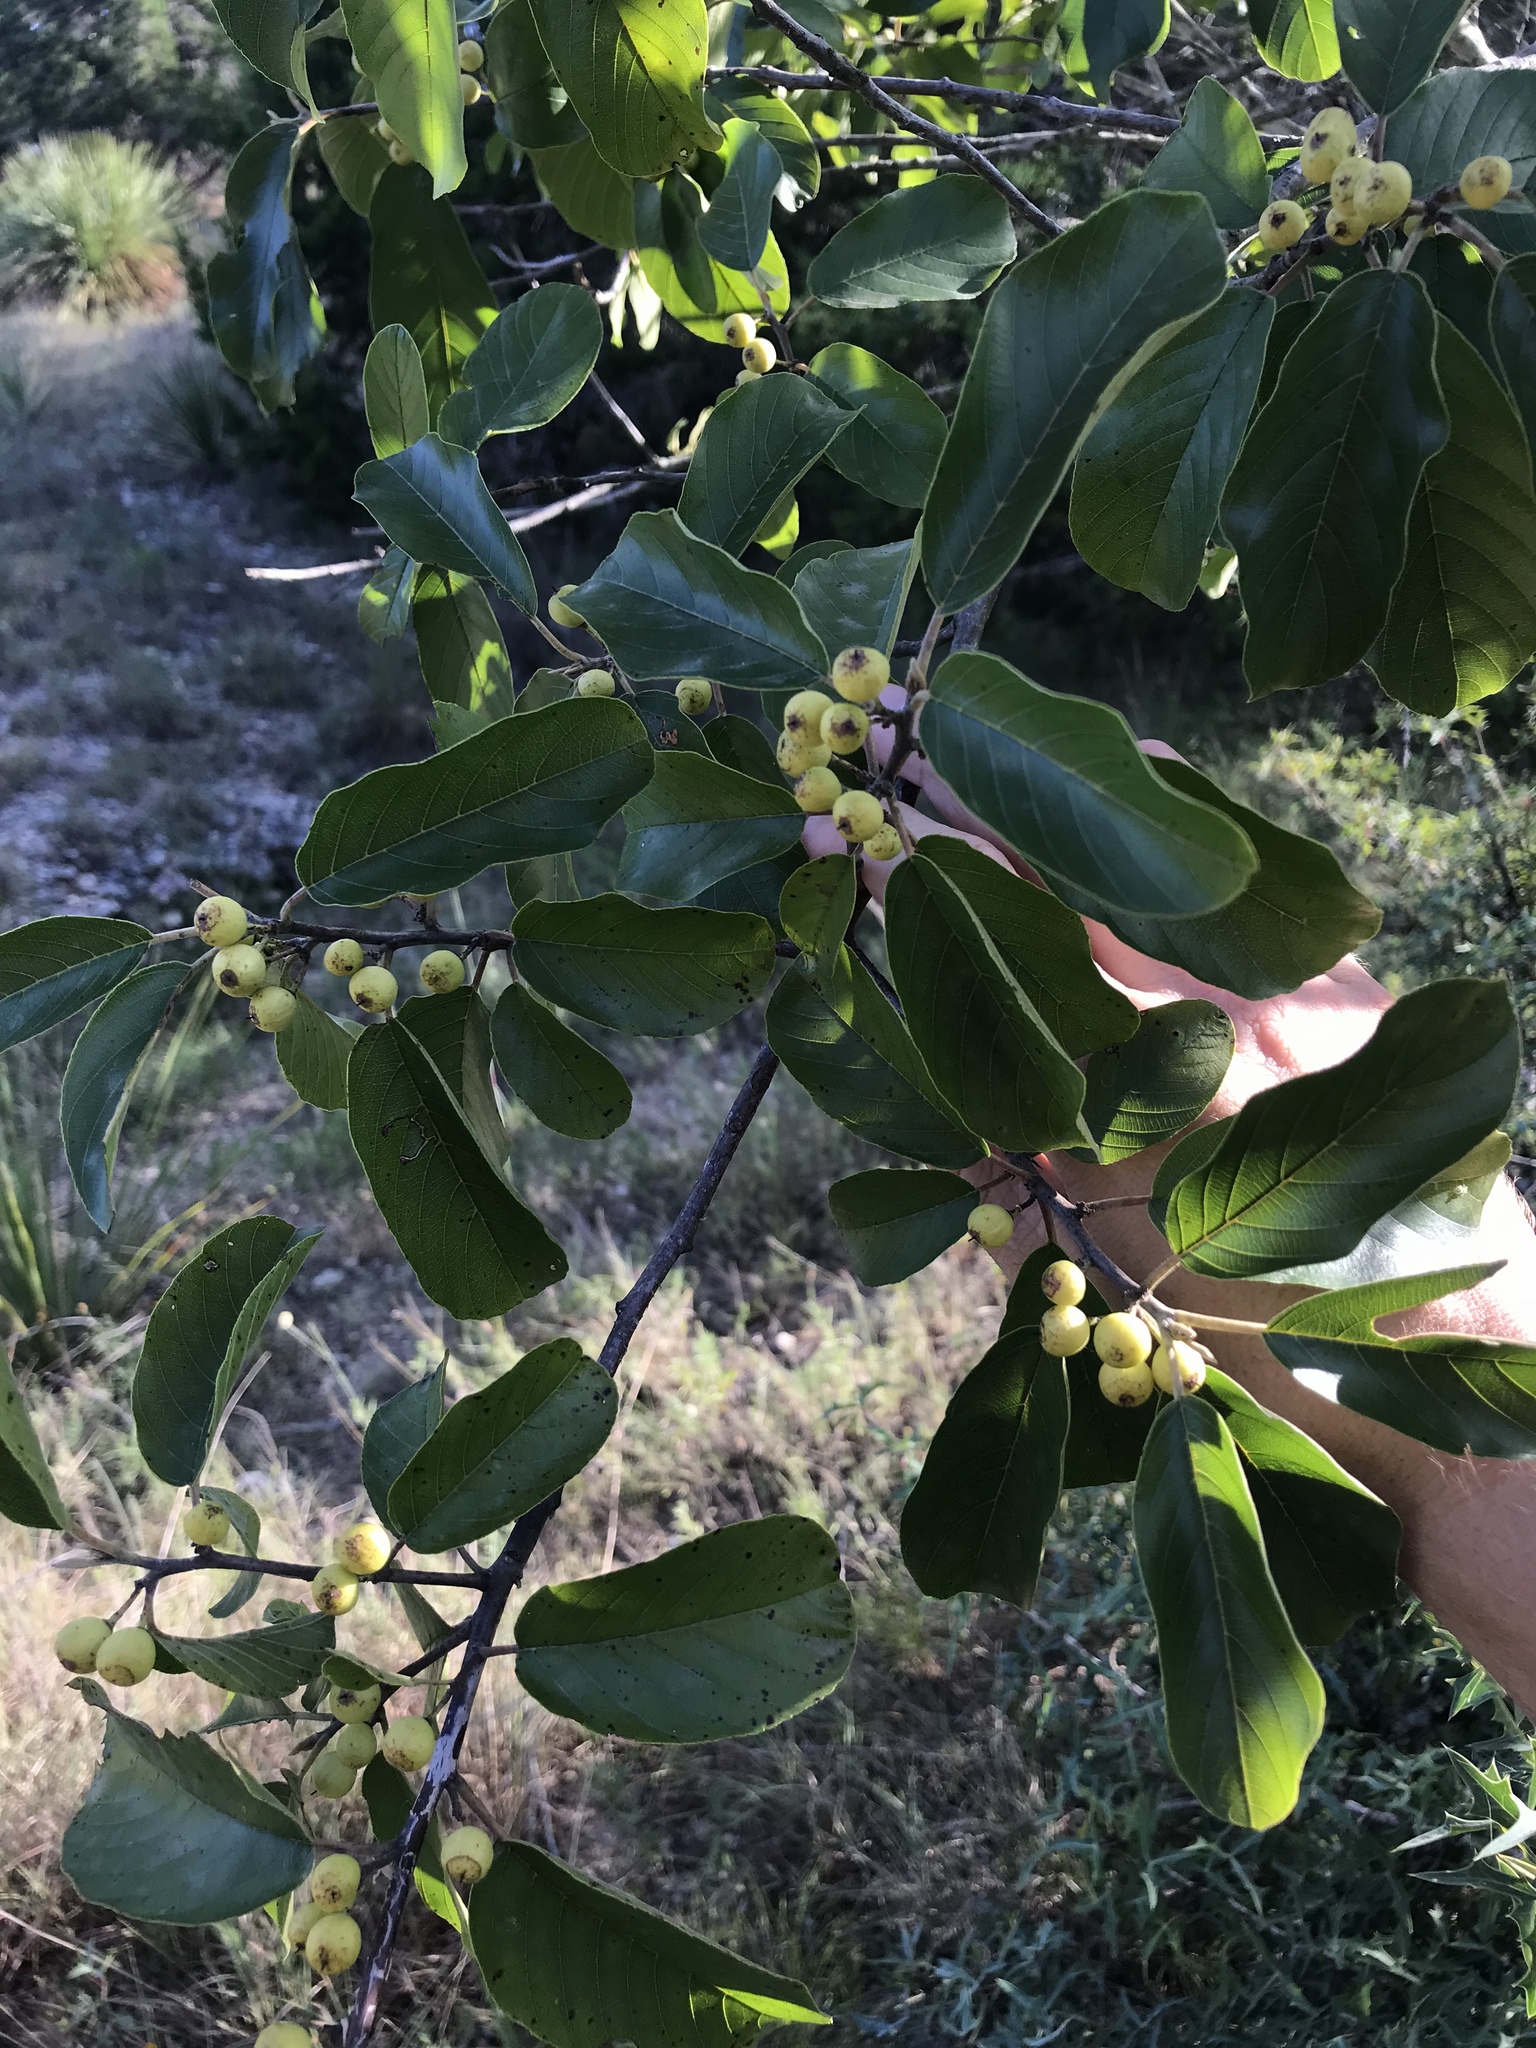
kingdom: Plantae
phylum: Tracheophyta
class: Magnoliopsida
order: Rosales
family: Rhamnaceae
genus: Frangula
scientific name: Frangula caroliniana
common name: Carolina buckthorn
